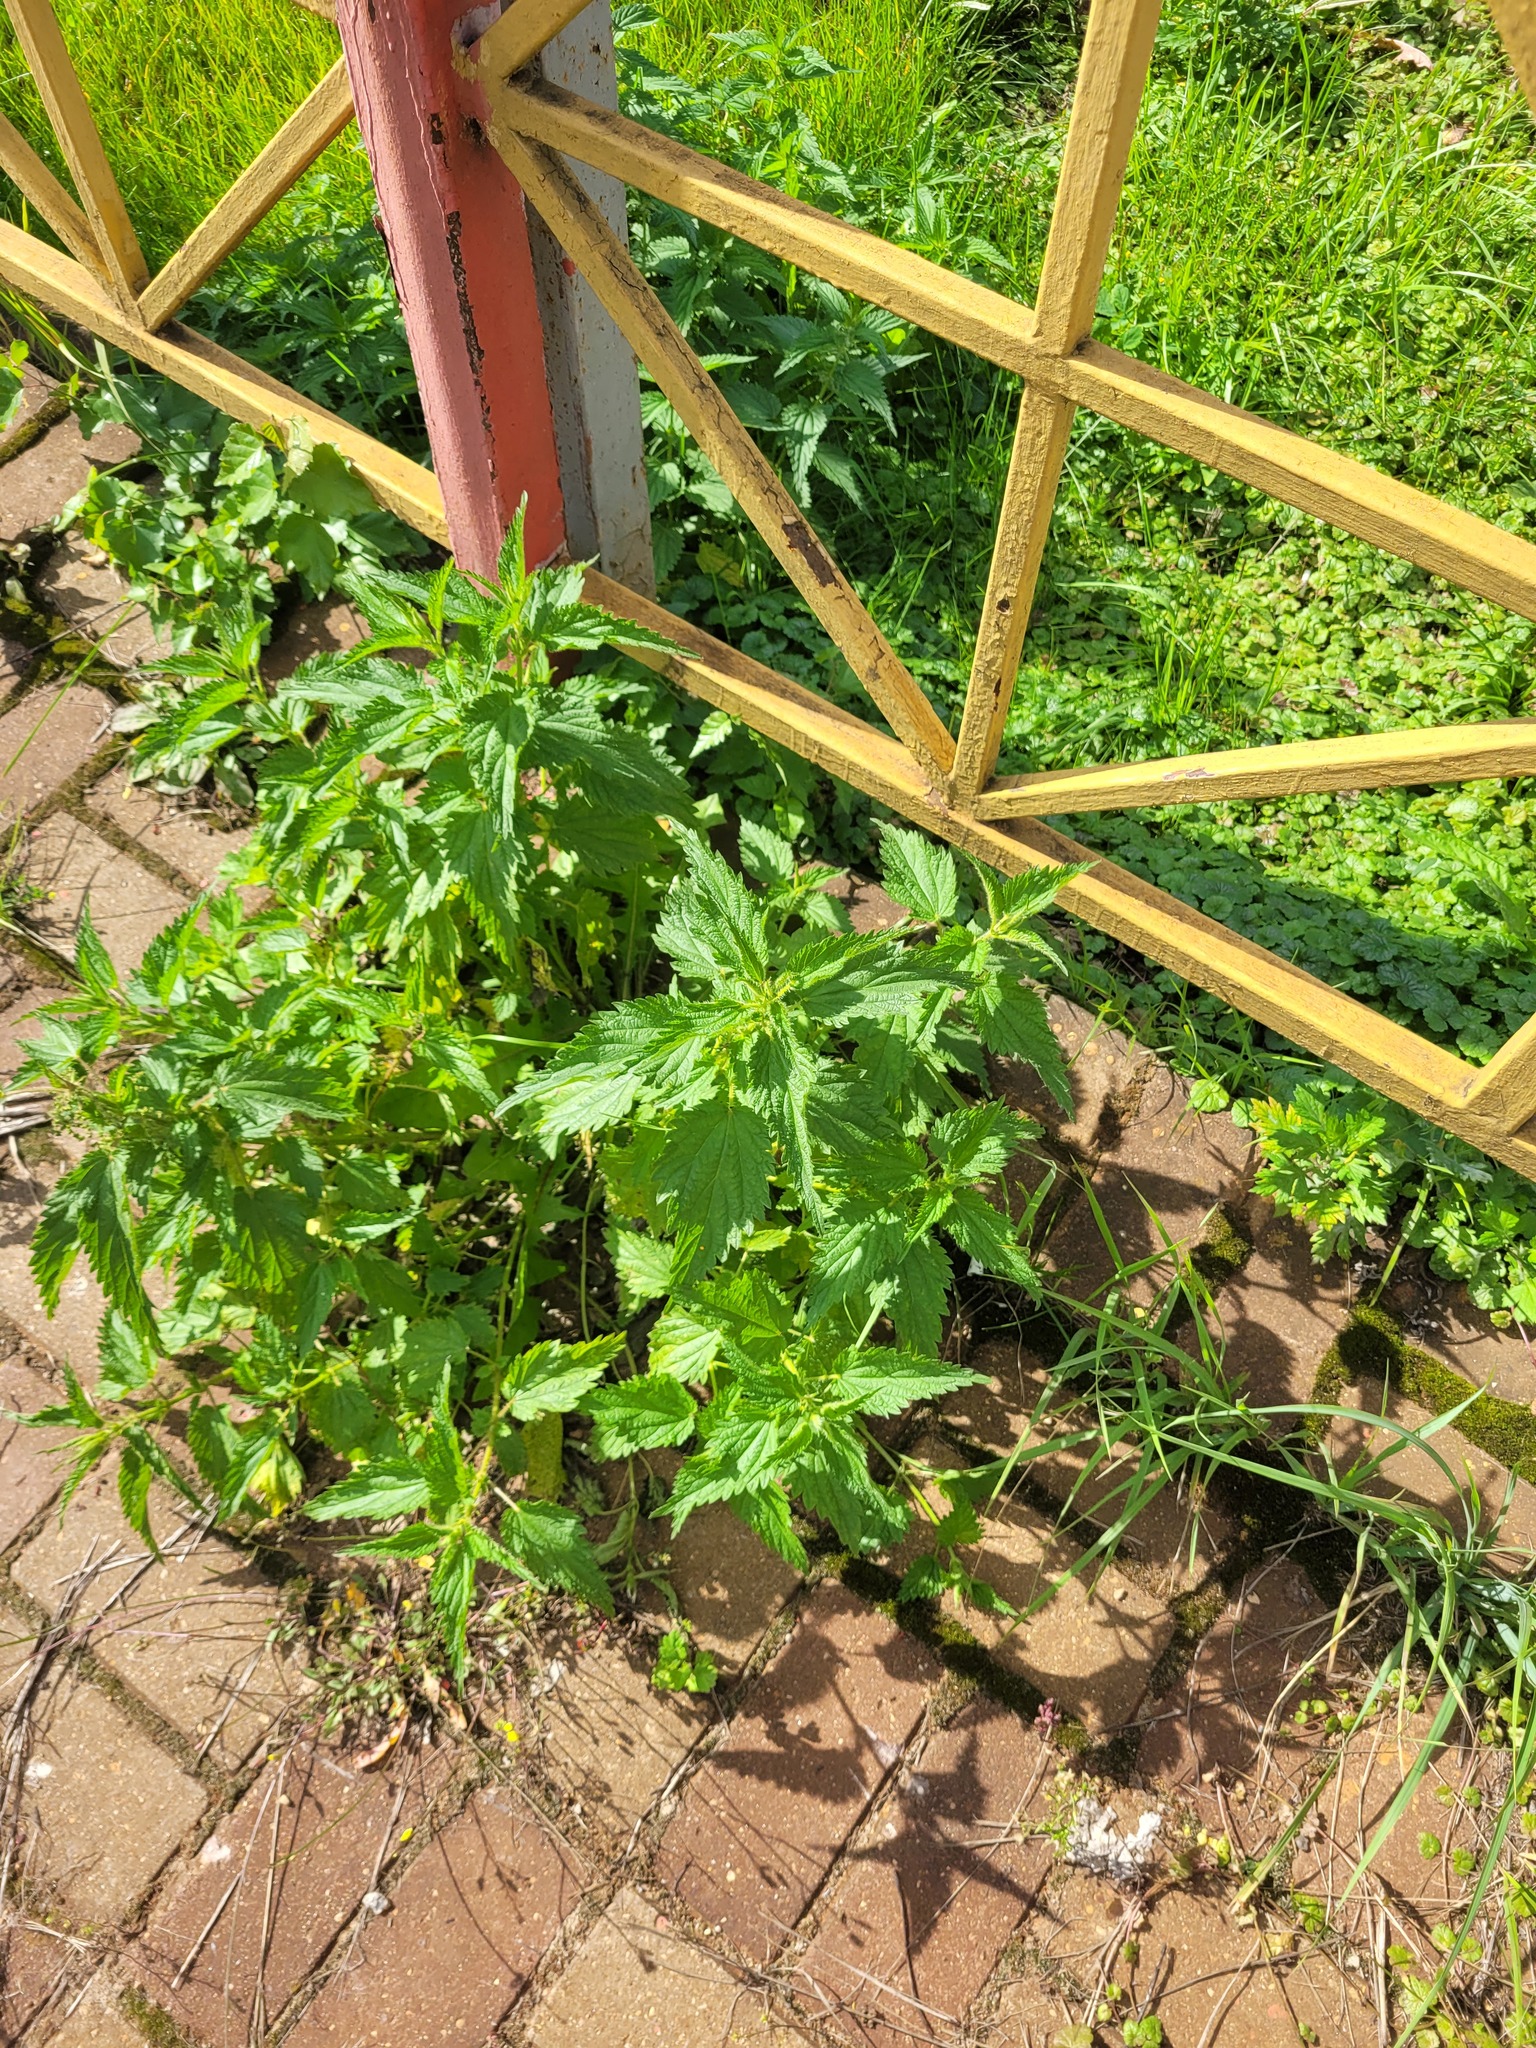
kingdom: Plantae
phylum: Tracheophyta
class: Magnoliopsida
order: Rosales
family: Urticaceae
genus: Urtica
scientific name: Urtica dioica
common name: Common nettle
